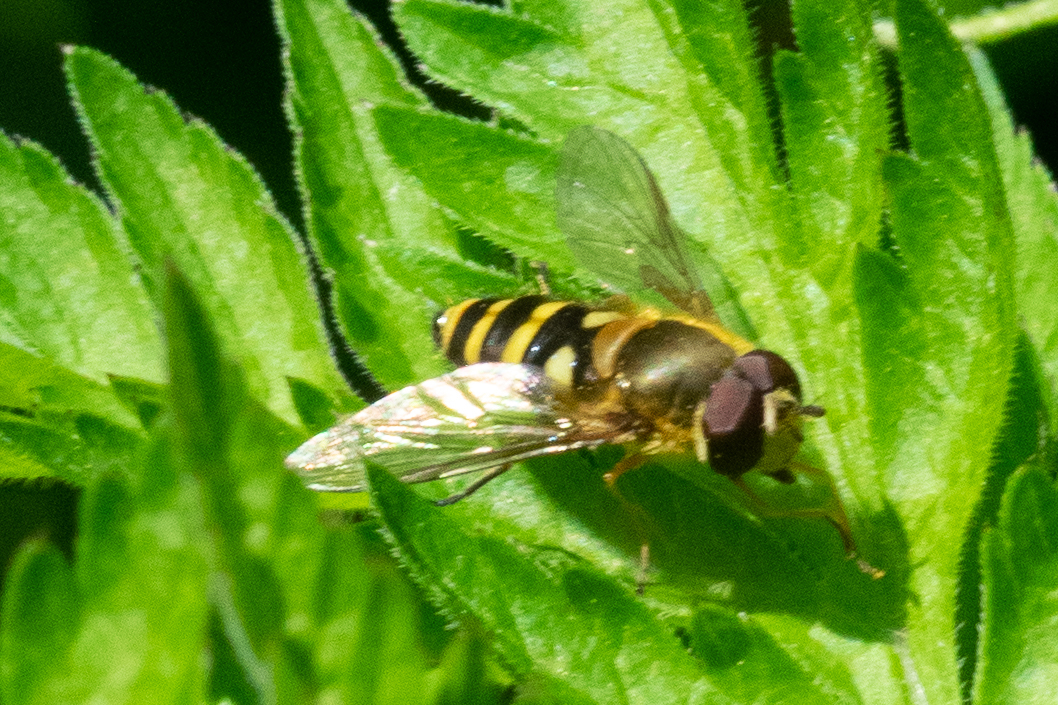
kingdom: Animalia
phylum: Arthropoda
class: Insecta
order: Diptera
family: Syrphidae
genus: Syrphus
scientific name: Syrphus
